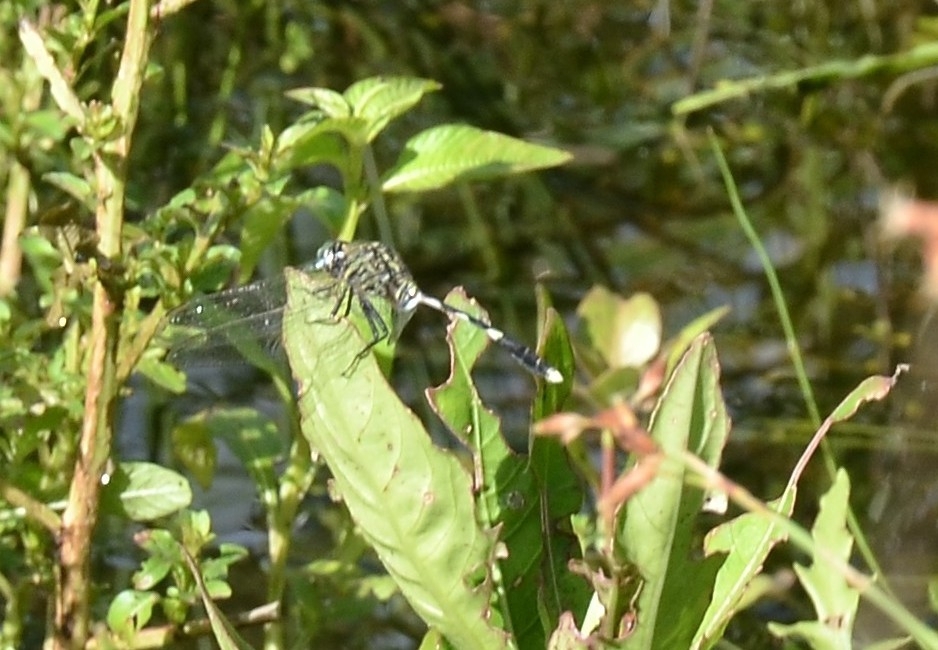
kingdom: Animalia
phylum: Arthropoda
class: Insecta
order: Odonata
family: Libellulidae
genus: Orthetrum
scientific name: Orthetrum sabina
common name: Slender skimmer
